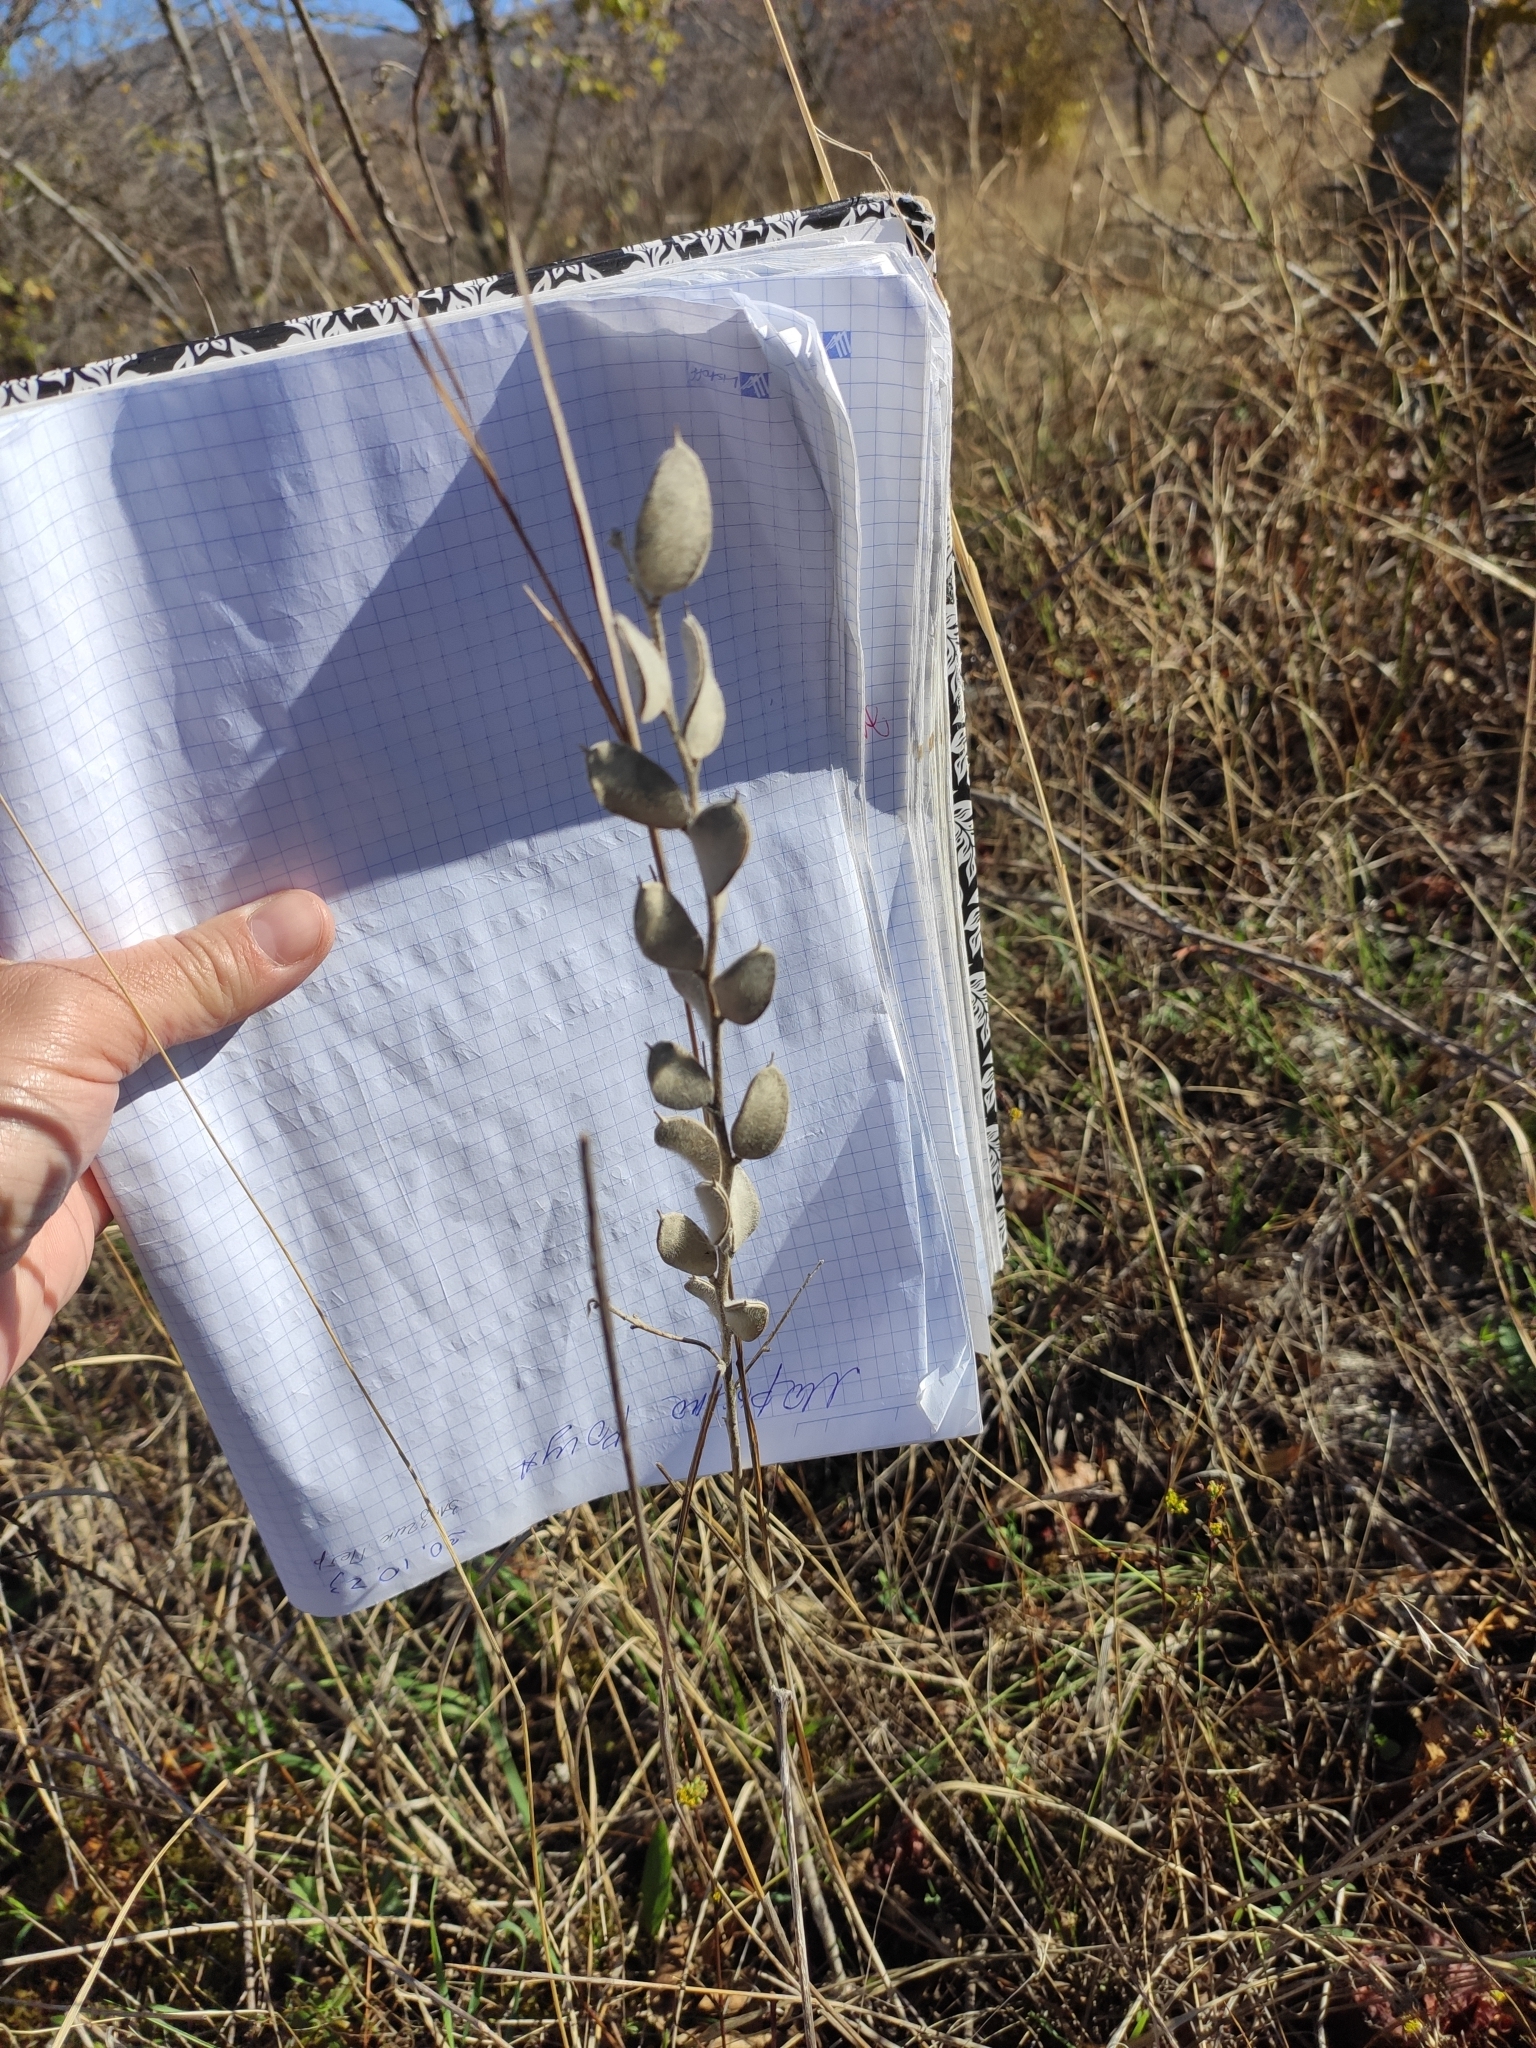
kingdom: Plantae
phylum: Tracheophyta
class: Magnoliopsida
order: Brassicales
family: Brassicaceae
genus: Fibigia
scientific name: Fibigia clypeata
